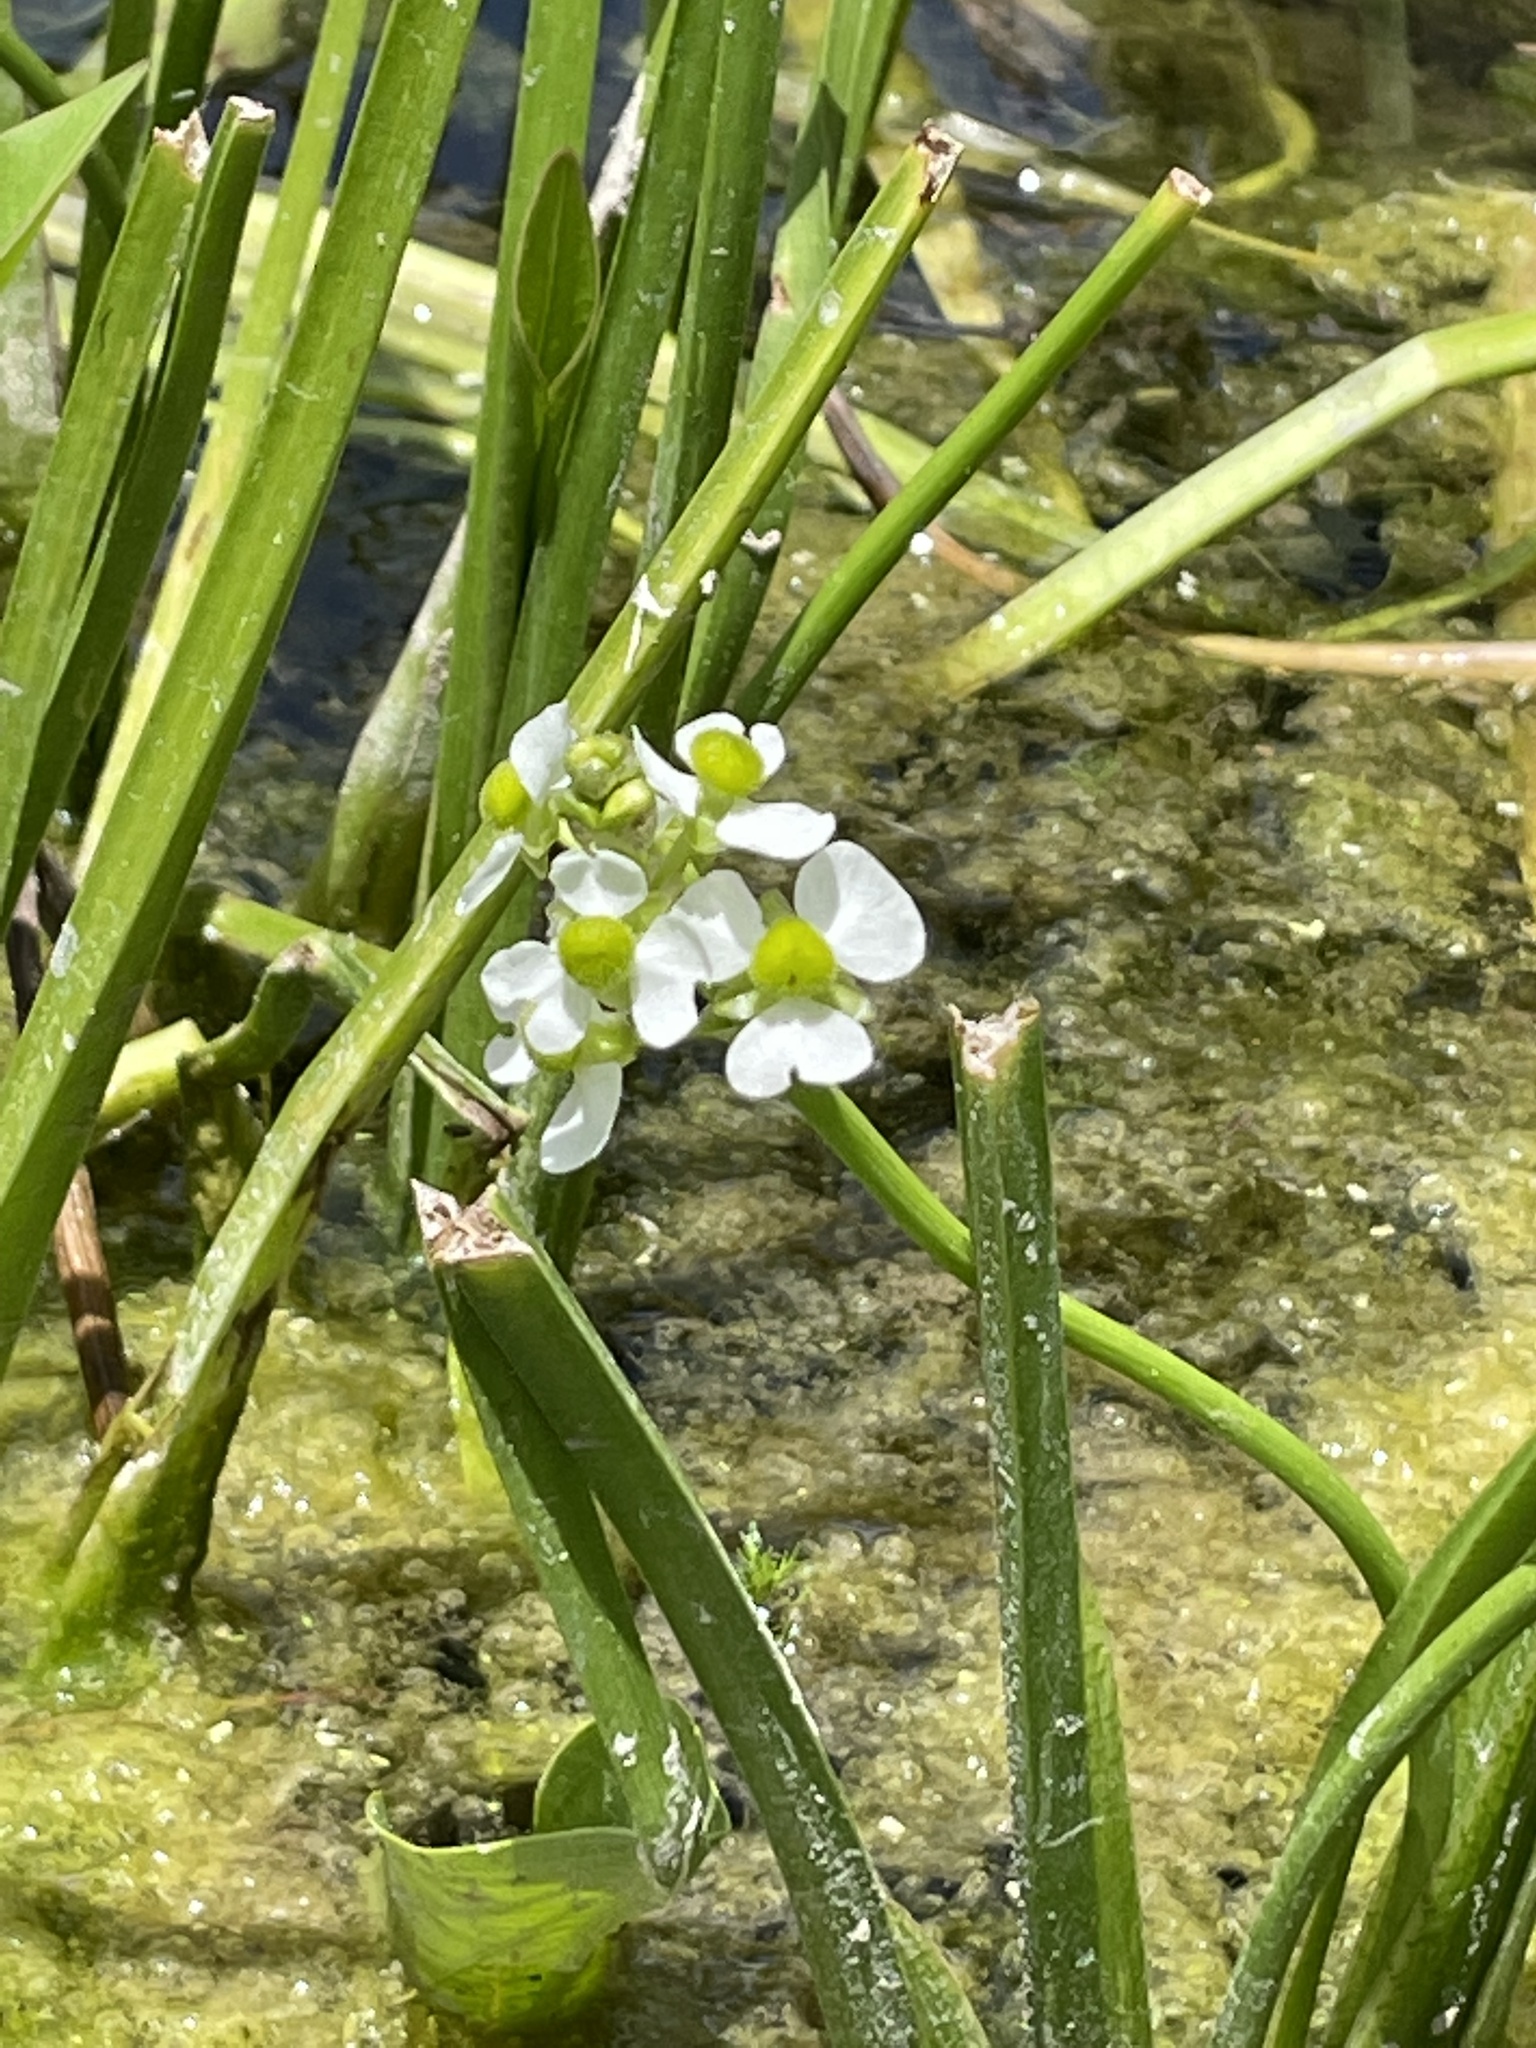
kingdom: Plantae
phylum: Tracheophyta
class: Liliopsida
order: Alismatales
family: Alismataceae
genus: Sagittaria
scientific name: Sagittaria platyphylla
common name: Broad-leaf arrowhead
